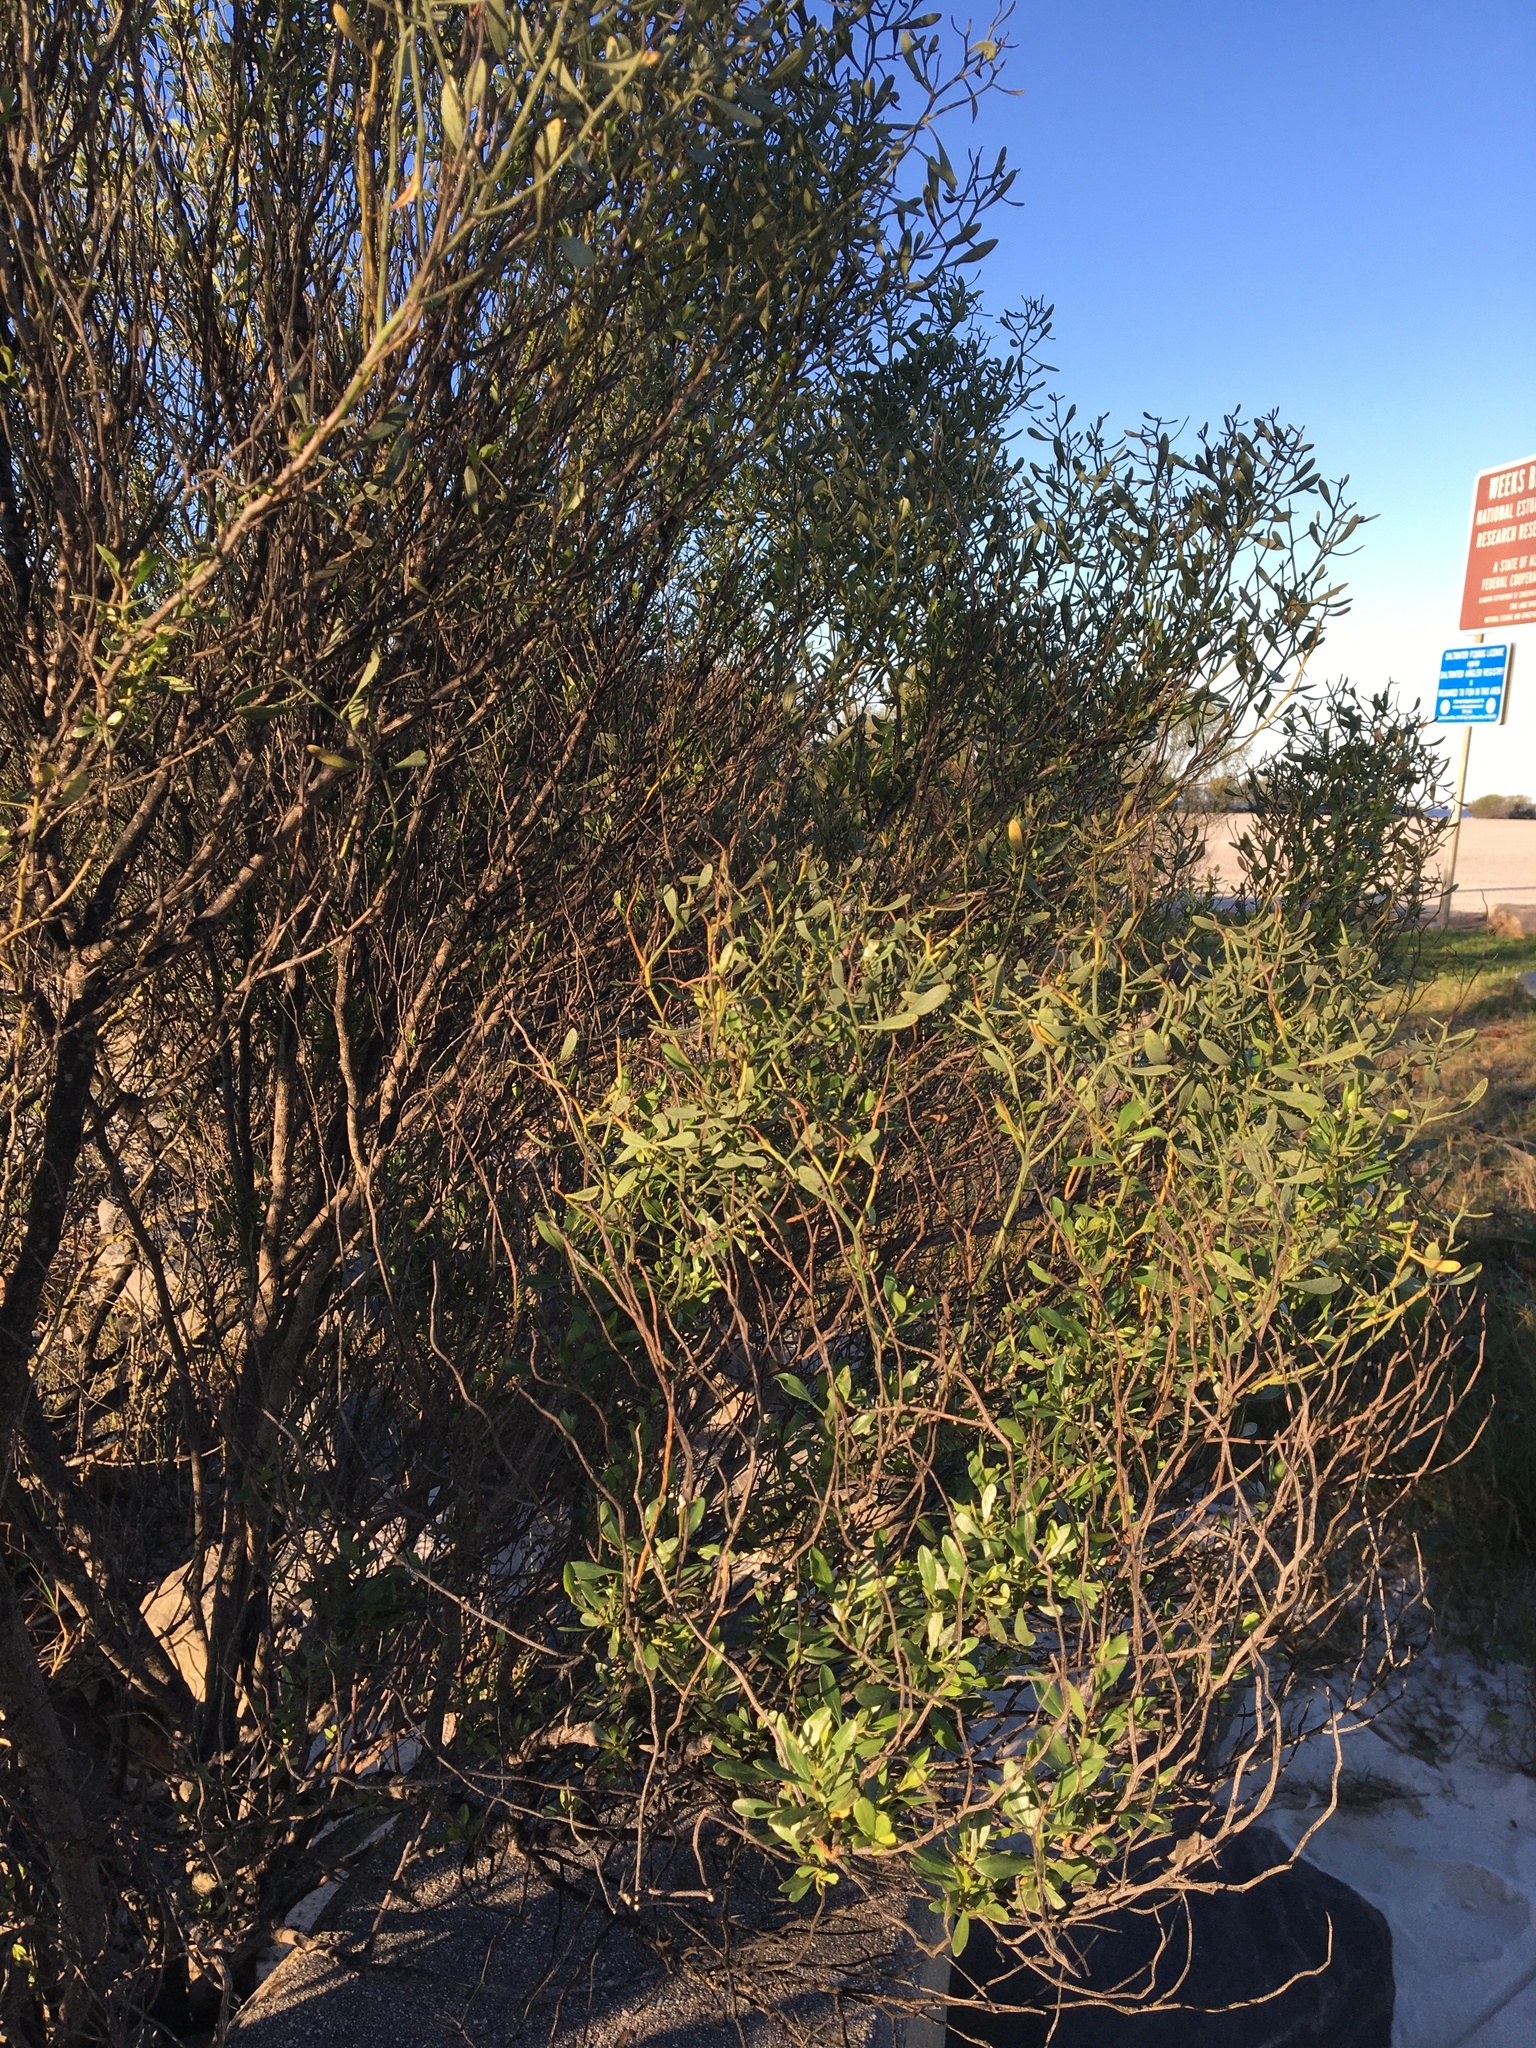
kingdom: Plantae
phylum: Tracheophyta
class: Magnoliopsida
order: Asterales
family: Asteraceae
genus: Baccharis
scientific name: Baccharis halimifolia
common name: Eastern baccharis
